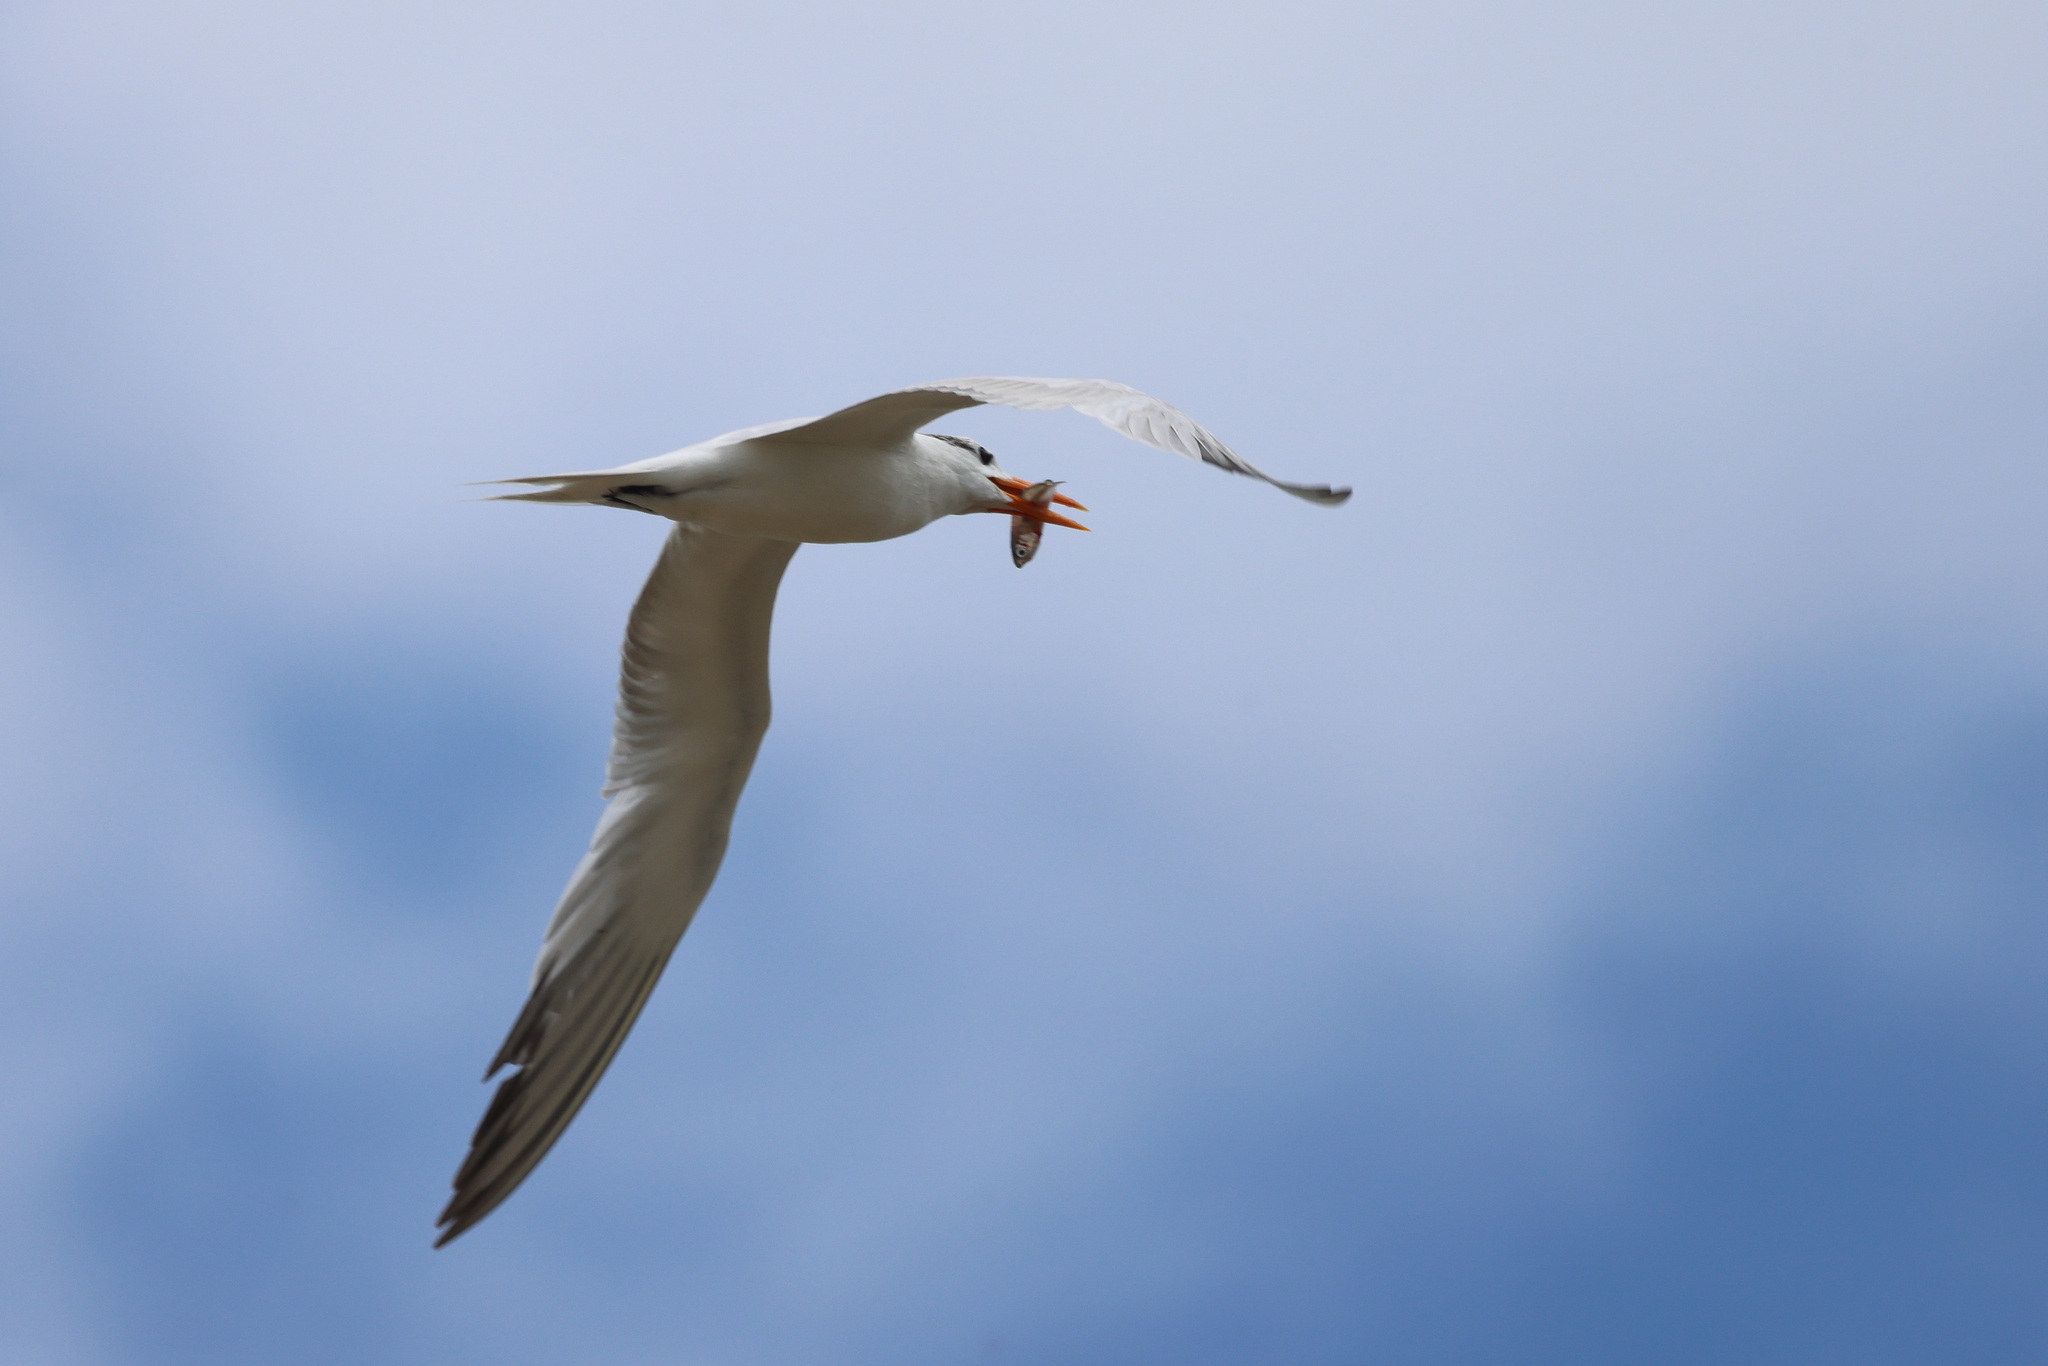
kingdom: Animalia
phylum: Chordata
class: Aves
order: Charadriiformes
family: Laridae
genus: Thalasseus
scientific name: Thalasseus maximus
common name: Royal tern
